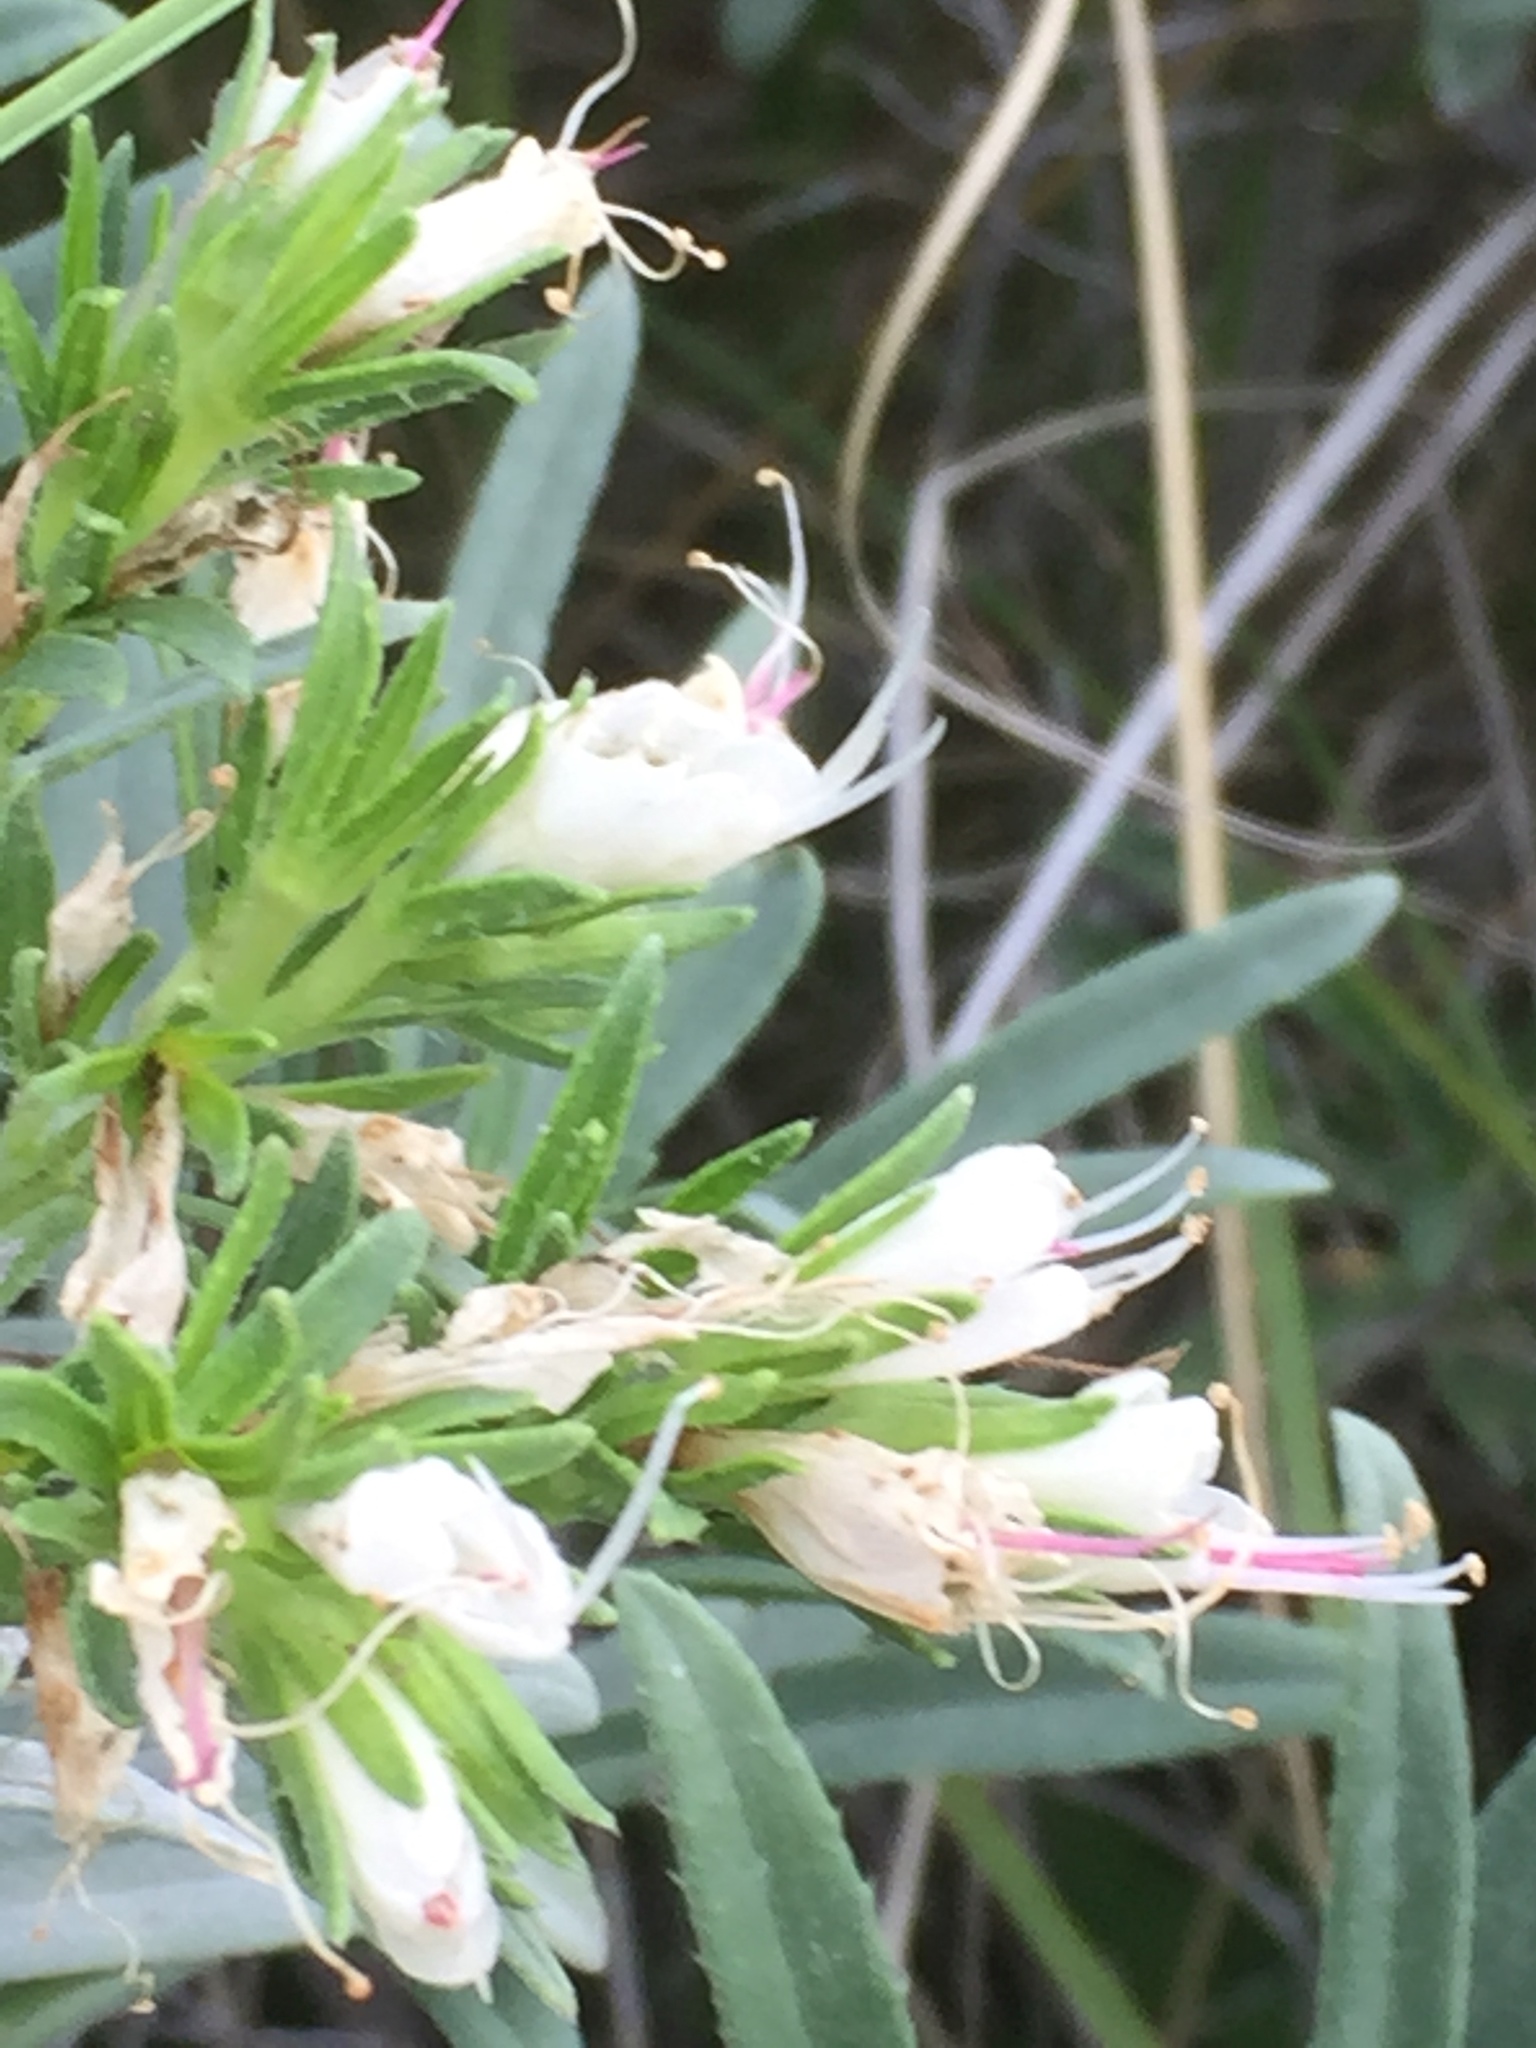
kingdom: Plantae
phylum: Tracheophyta
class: Magnoliopsida
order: Boraginales
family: Boraginaceae
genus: Echium
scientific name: Echium brevirame
